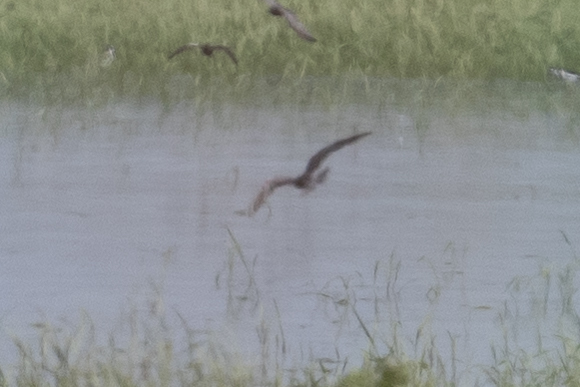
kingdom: Animalia
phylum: Chordata
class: Aves
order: Charadriiformes
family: Laridae
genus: Chlidonias
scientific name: Chlidonias niger
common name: Black tern
